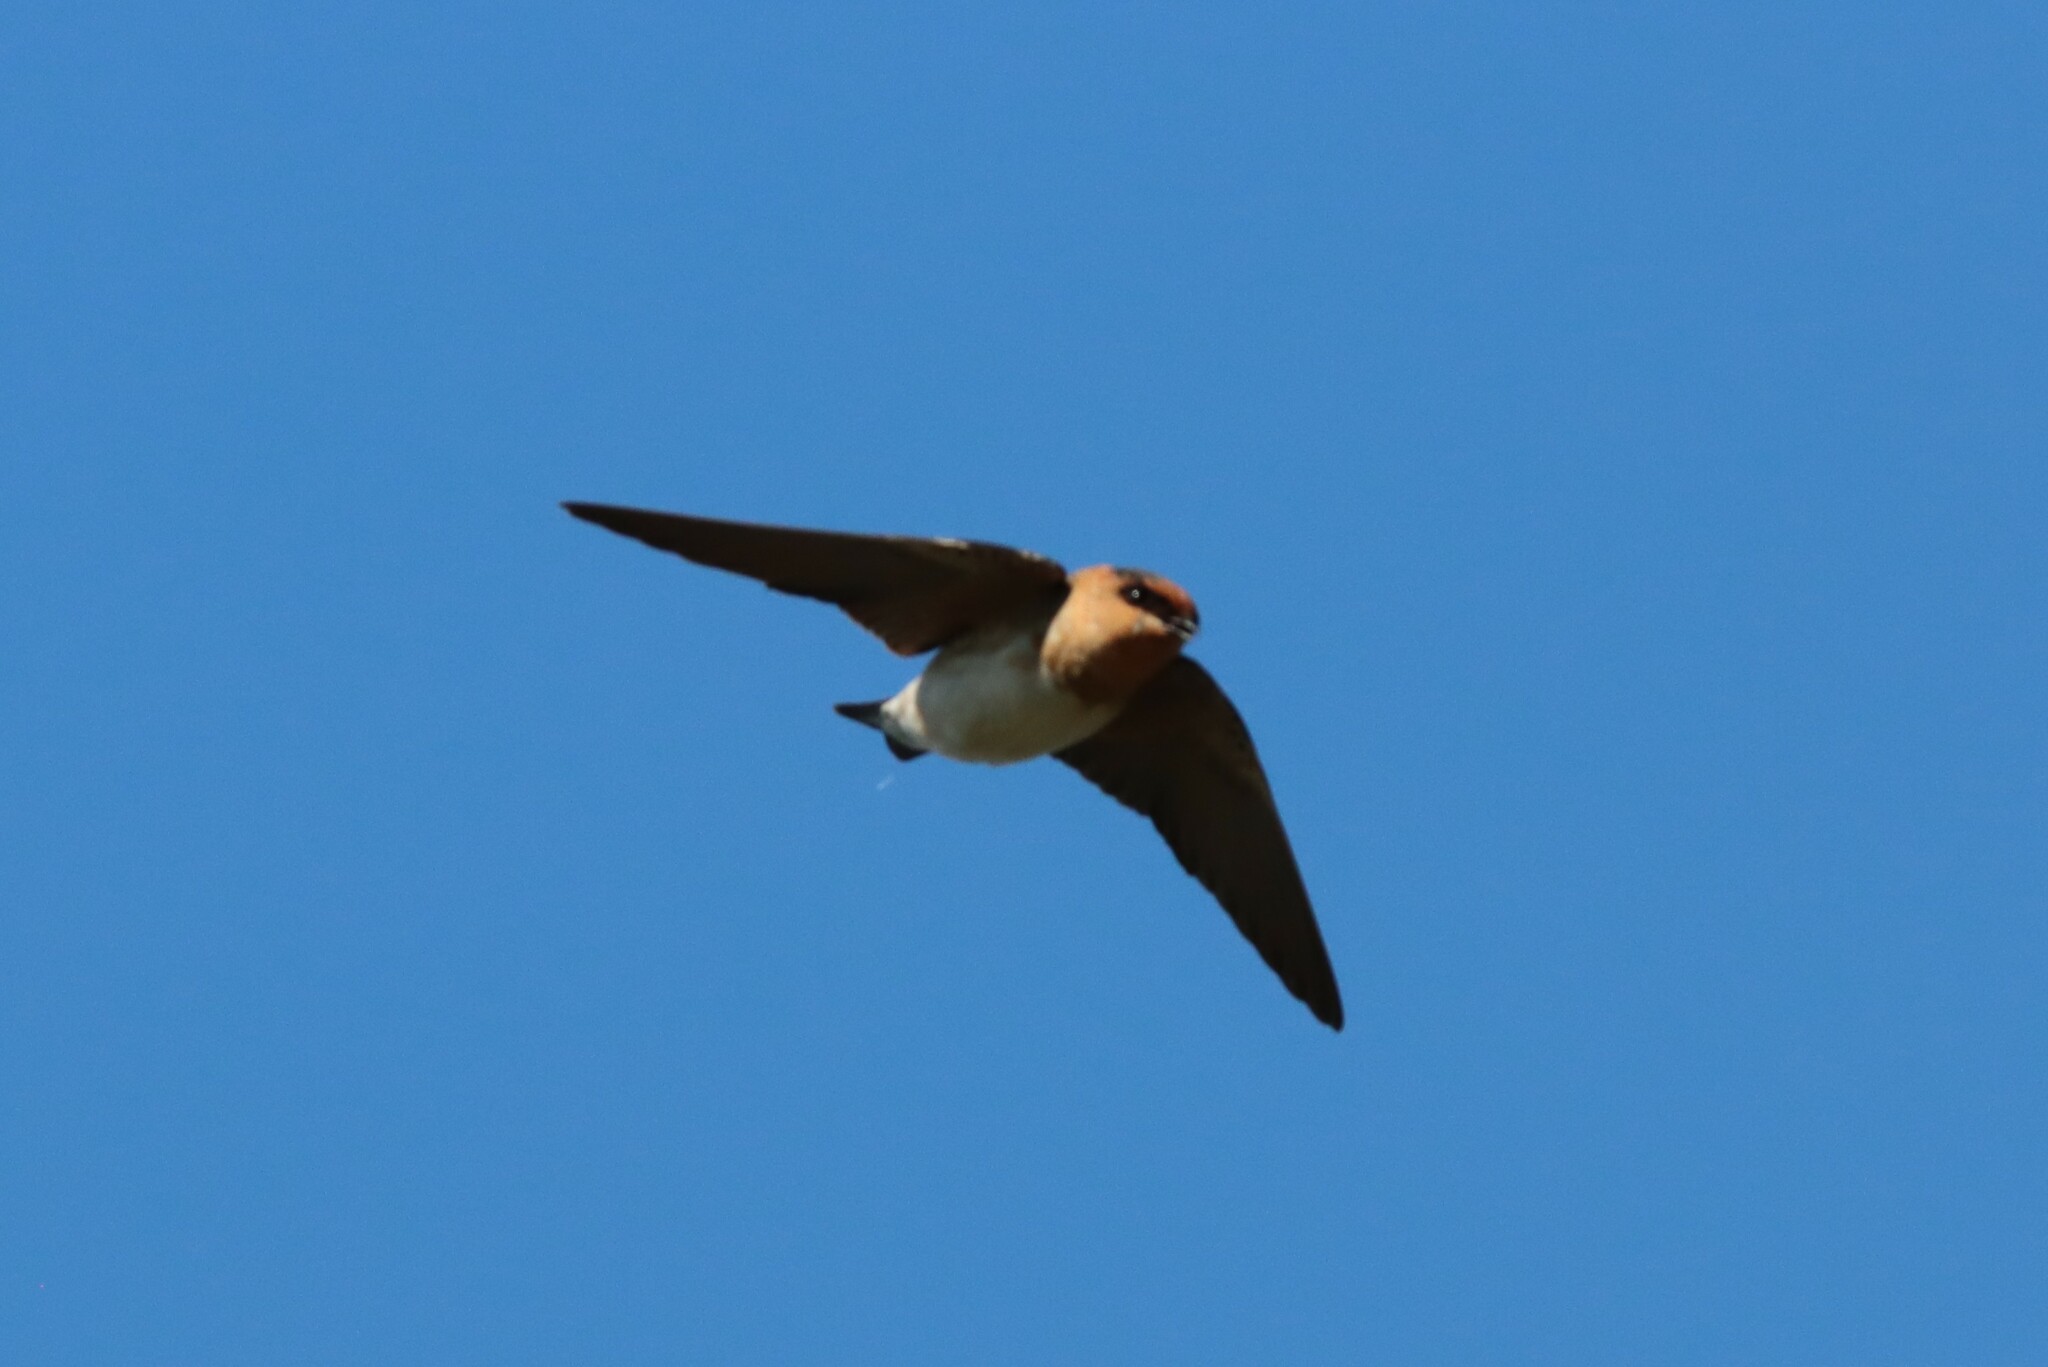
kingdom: Animalia
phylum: Chordata
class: Aves
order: Passeriformes
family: Hirundinidae
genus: Petrochelidon
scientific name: Petrochelidon fulva
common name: Cave swallow
